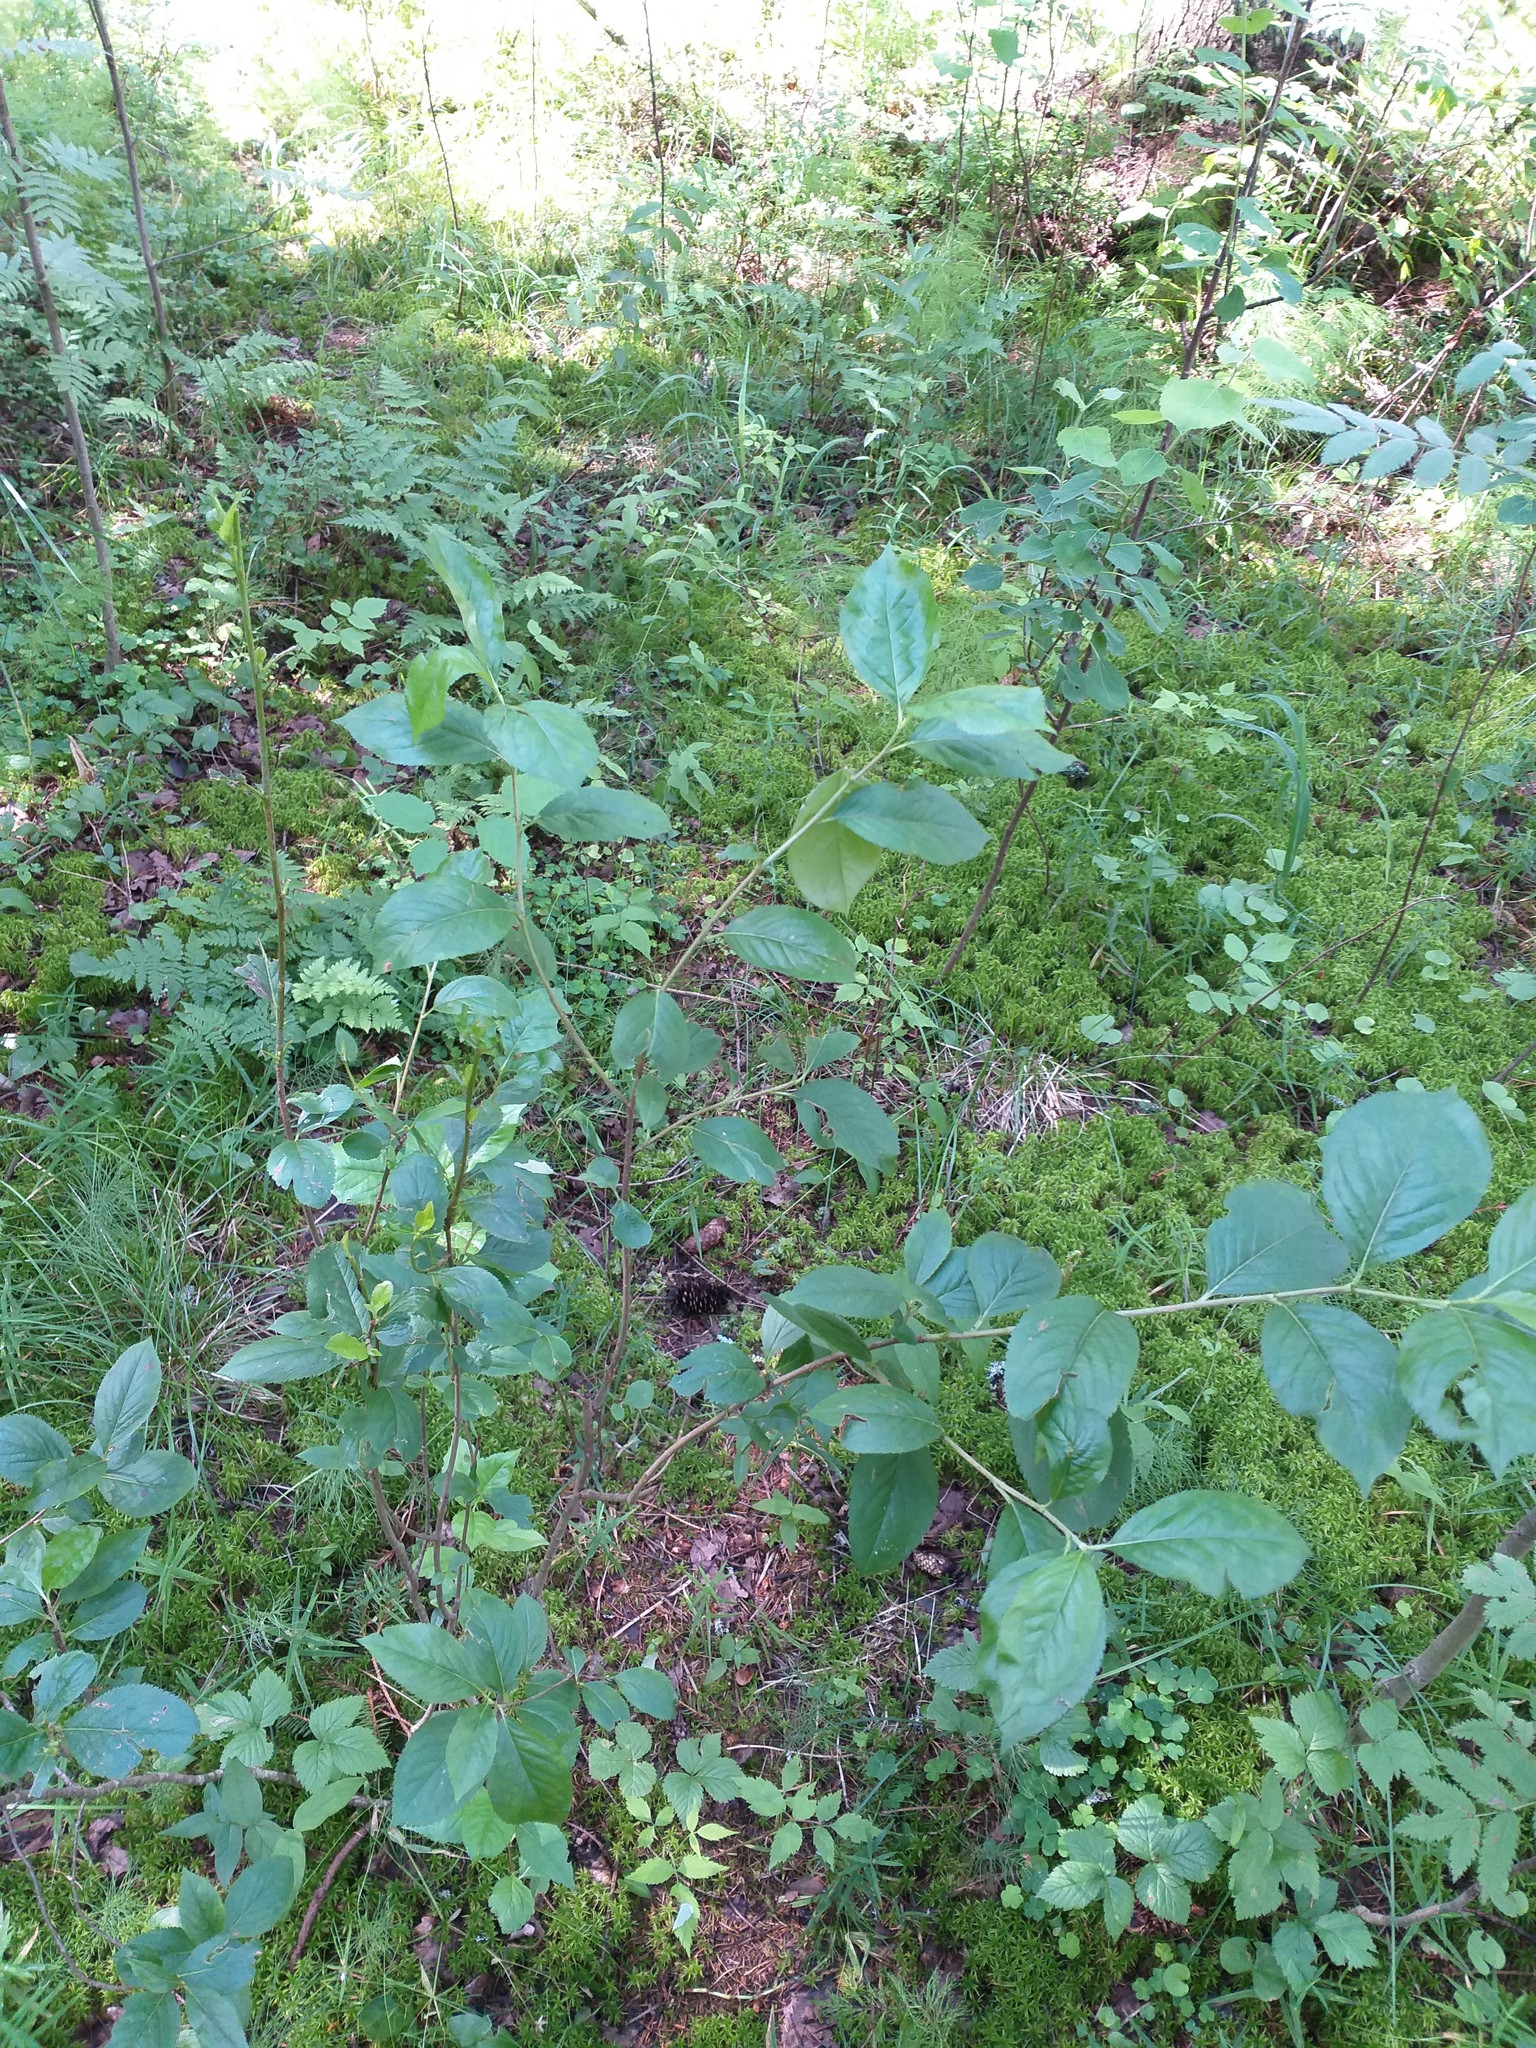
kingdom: Plantae
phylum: Tracheophyta
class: Magnoliopsida
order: Rosales
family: Rosaceae
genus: Sorbaronia
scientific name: Sorbaronia arsenii
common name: Arsène's mountain-ash
